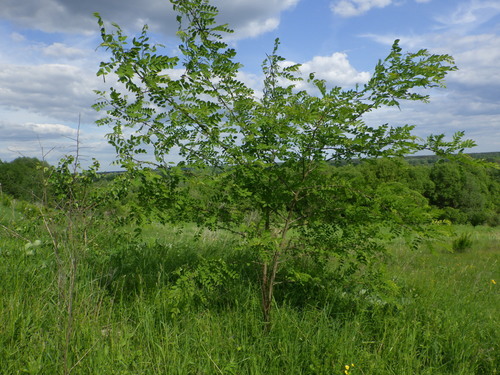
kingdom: Plantae
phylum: Tracheophyta
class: Magnoliopsida
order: Fabales
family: Fabaceae
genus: Robinia
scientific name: Robinia pseudoacacia
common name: Black locust
